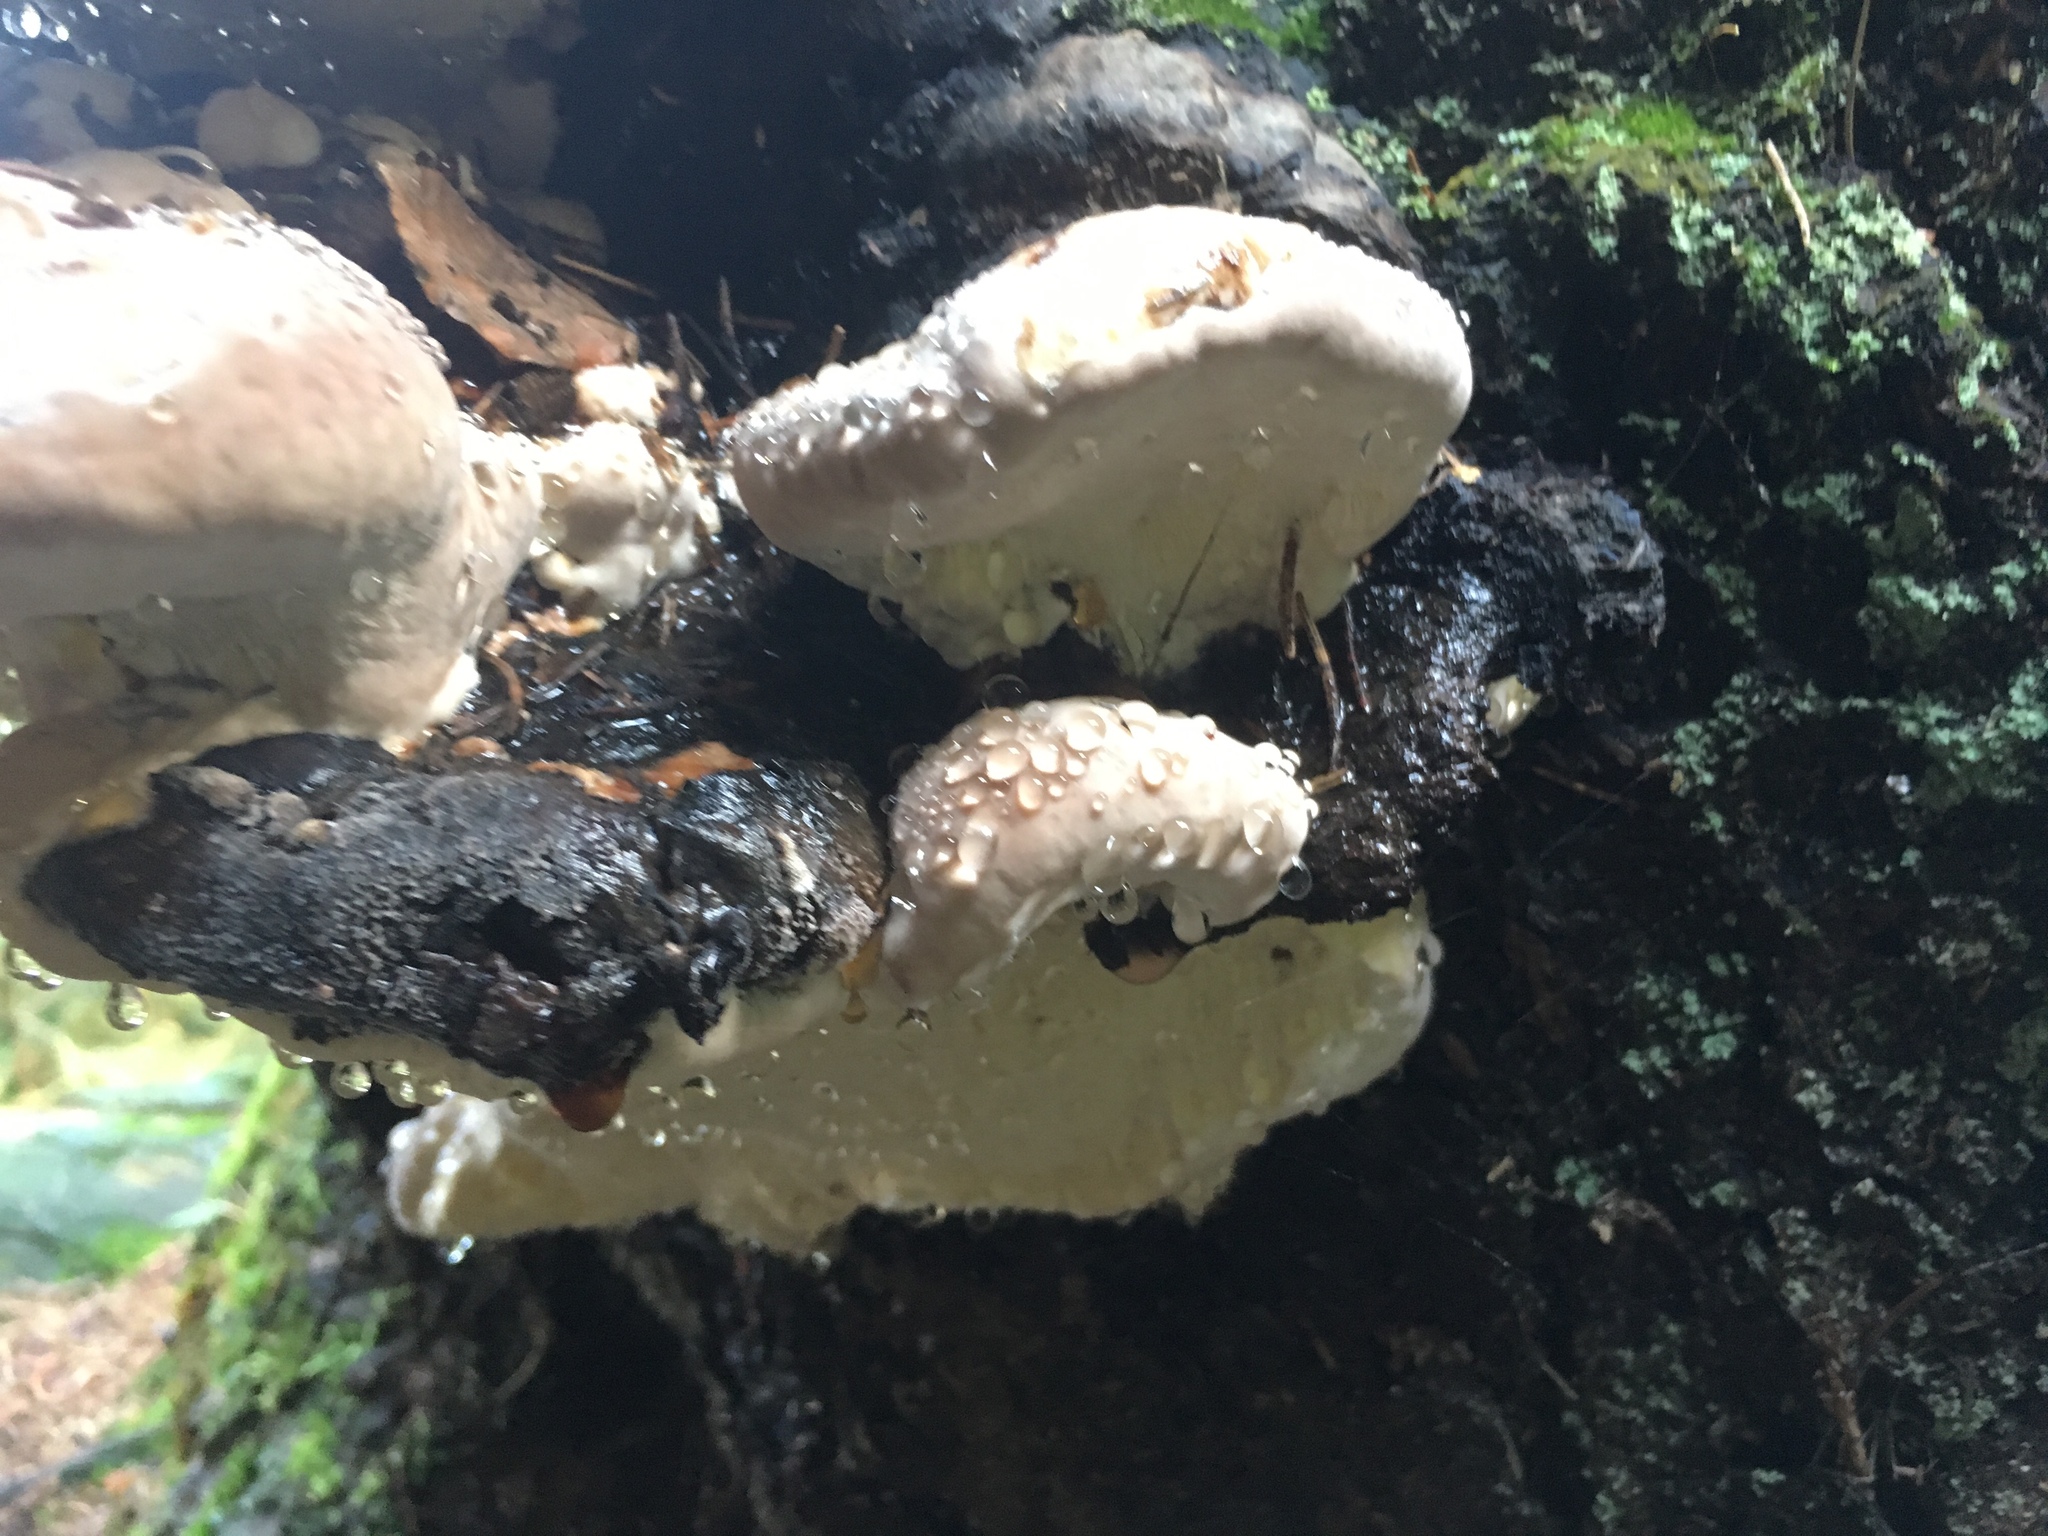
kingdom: Fungi
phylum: Basidiomycota
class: Agaricomycetes
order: Hymenochaetales
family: Hymenochaetaceae
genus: Pseudoinonotus
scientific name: Pseudoinonotus dryadeus
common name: Oak bracket
